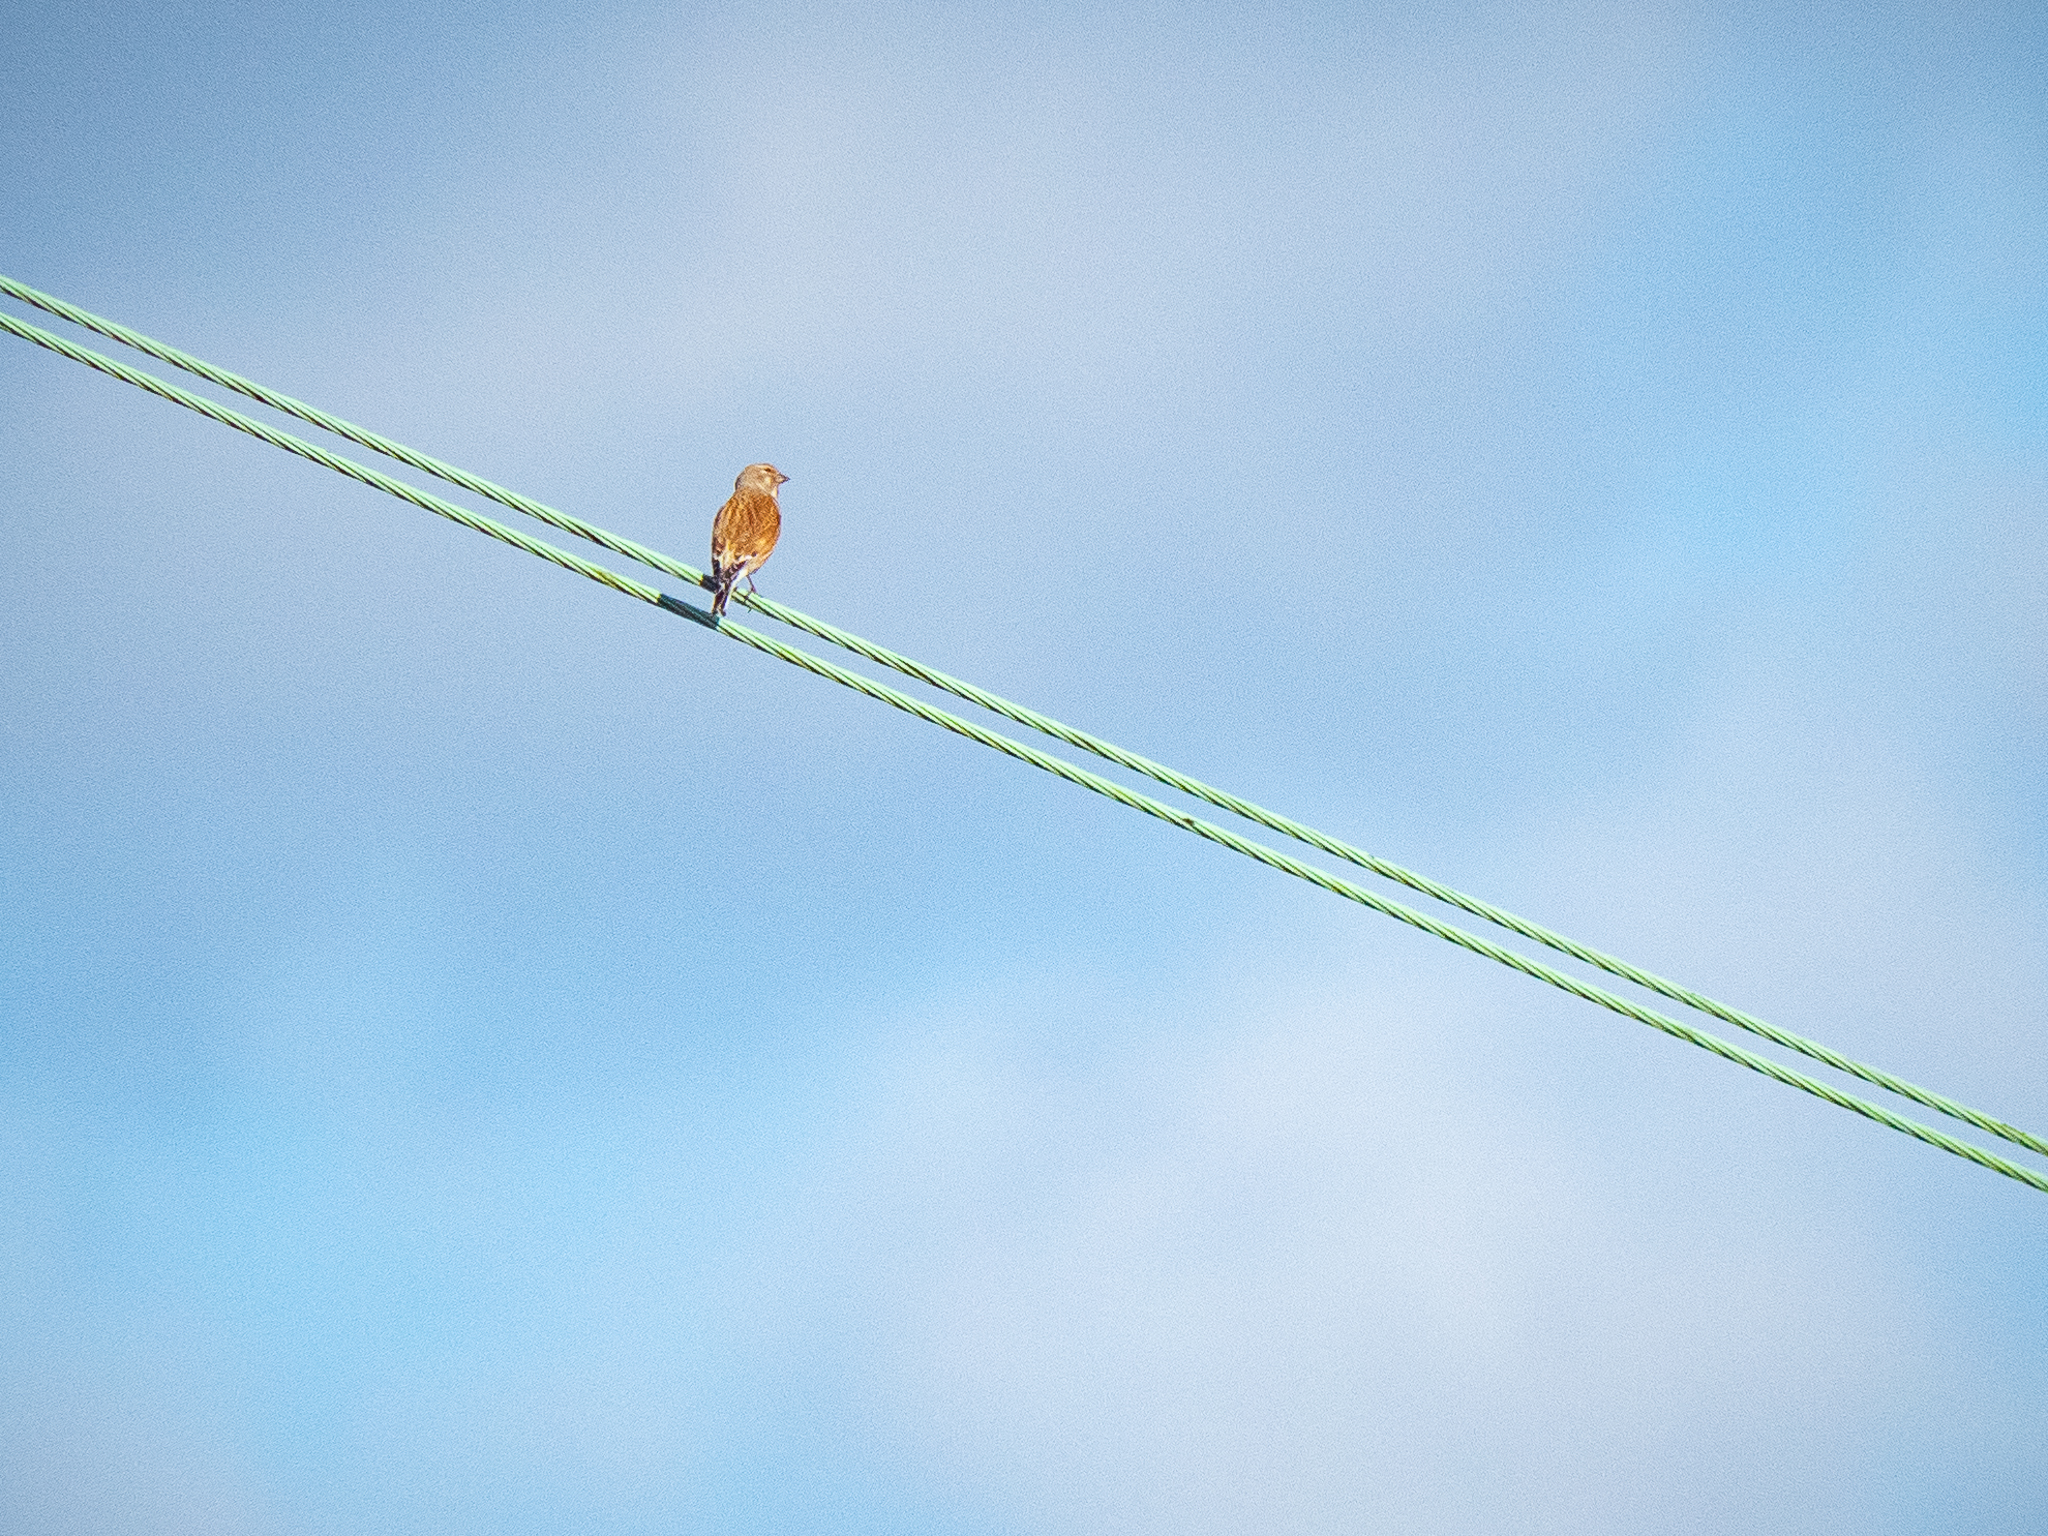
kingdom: Animalia
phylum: Chordata
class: Aves
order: Passeriformes
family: Fringillidae
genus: Linaria
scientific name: Linaria cannabina
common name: Common linnet
